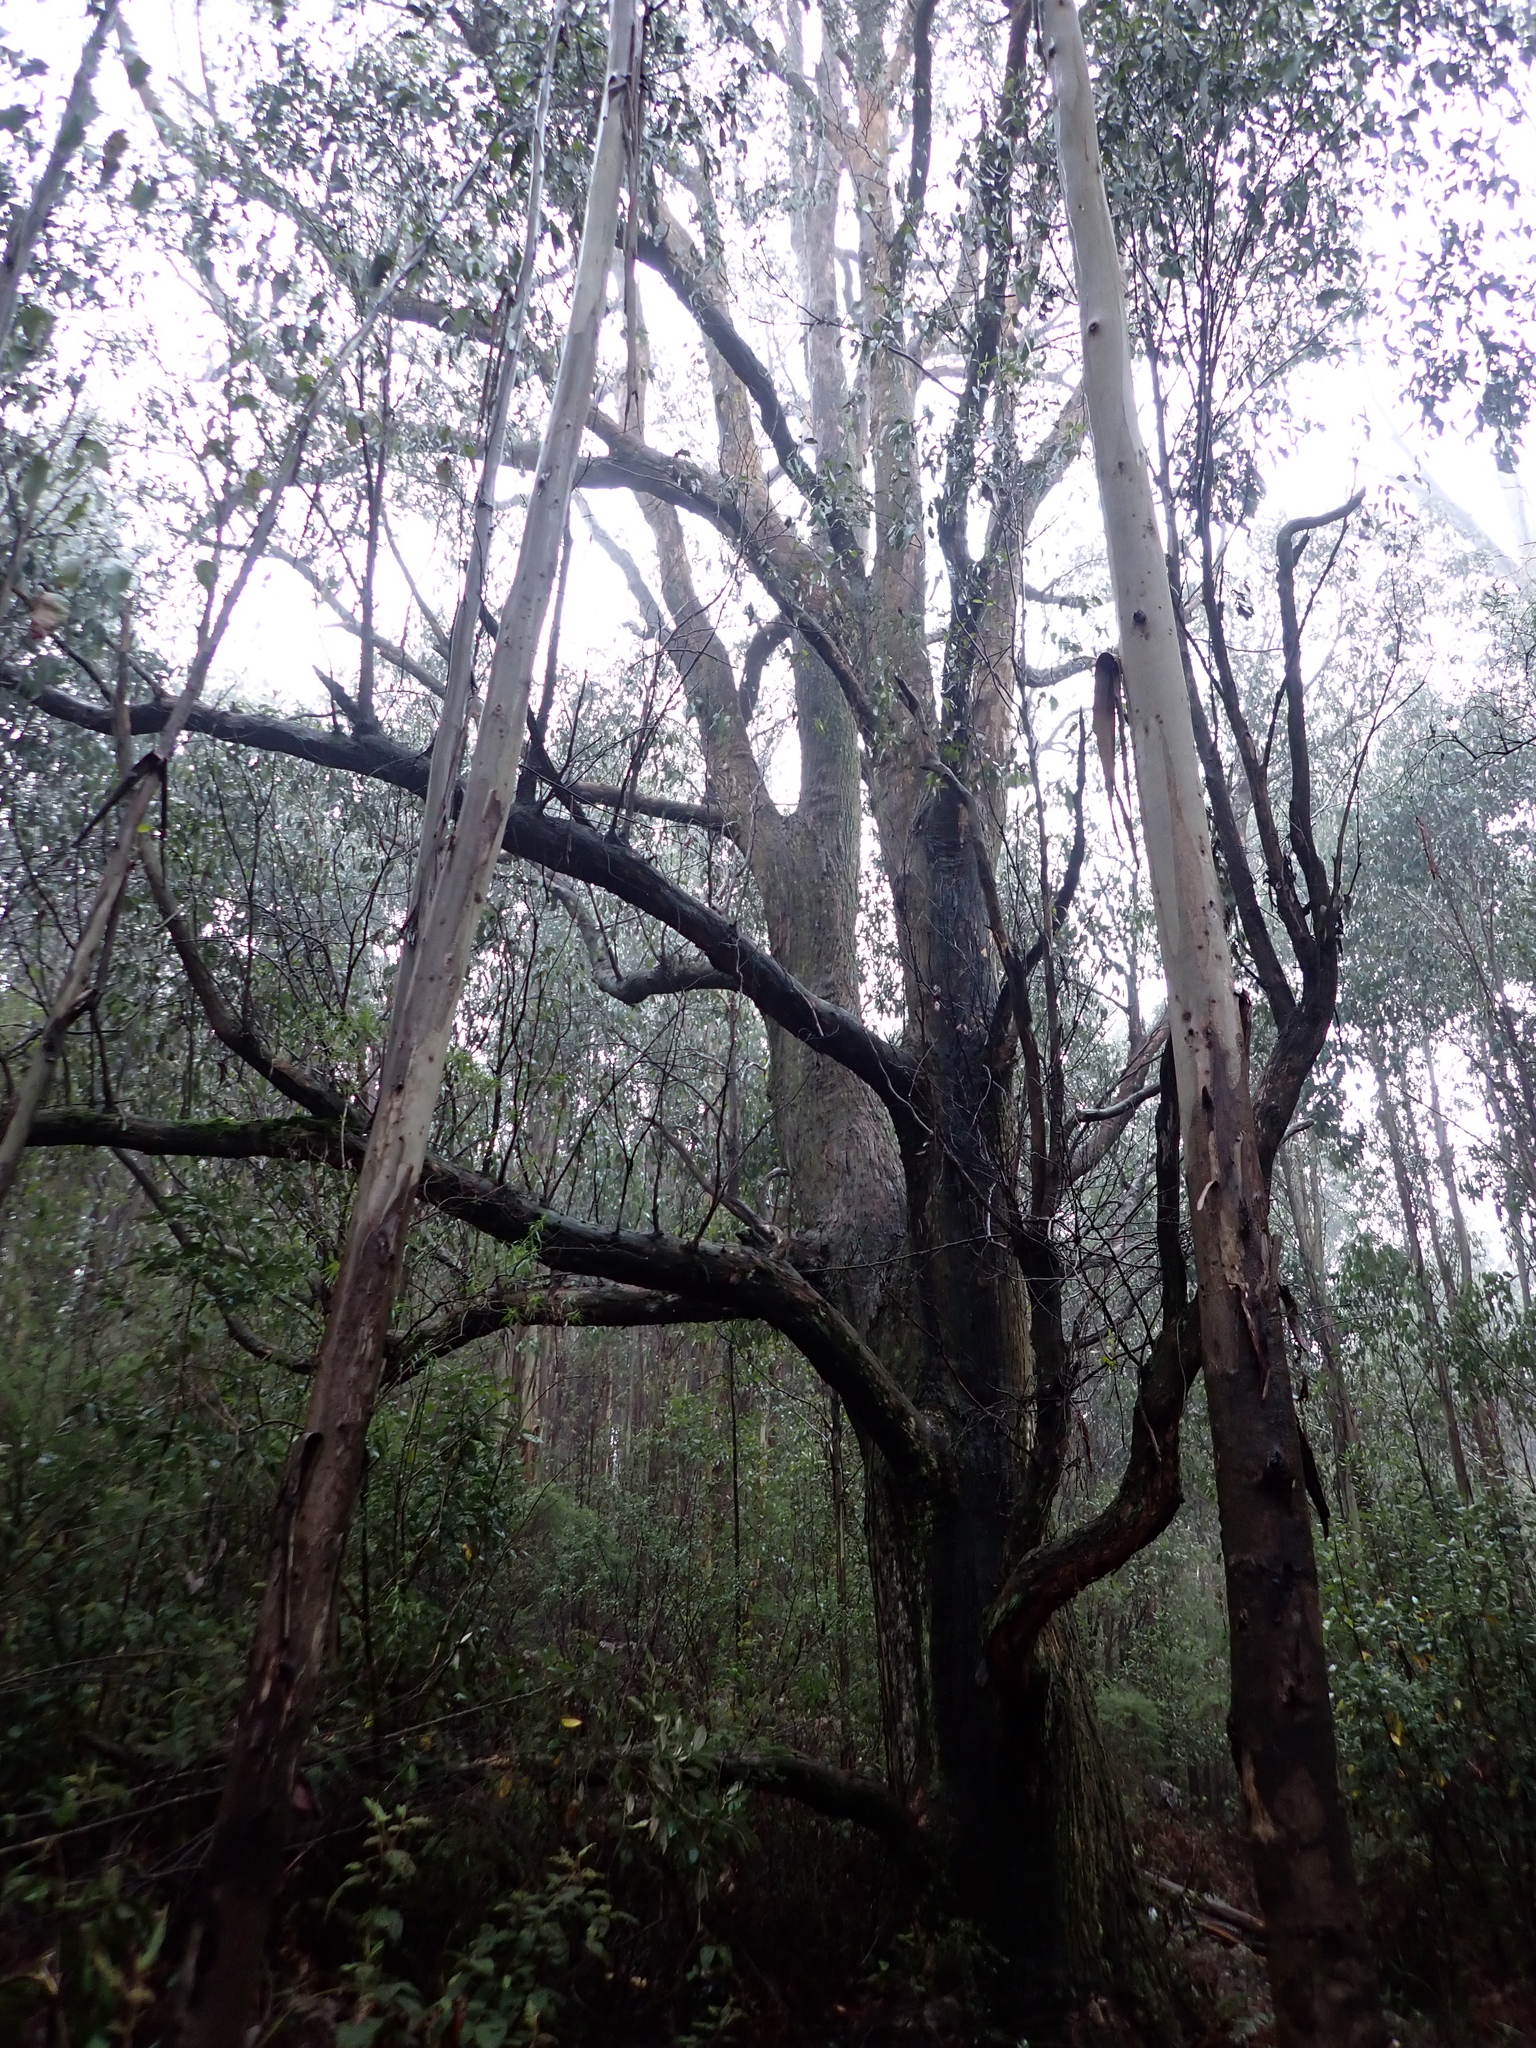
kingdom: Plantae
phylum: Tracheophyta
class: Magnoliopsida
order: Myrtales
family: Myrtaceae
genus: Eucalyptus
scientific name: Eucalyptus obliqua
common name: Messmate stringybark
